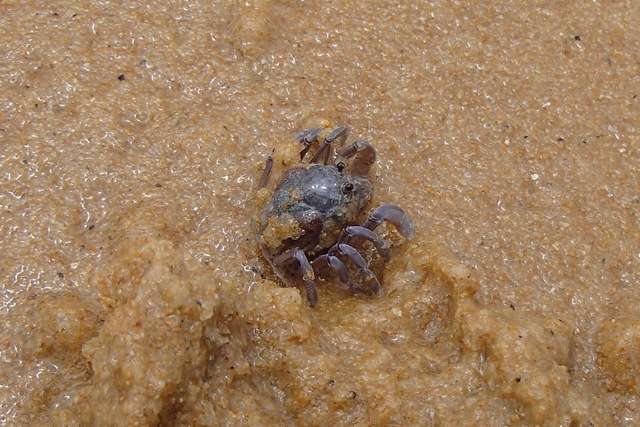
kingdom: Animalia
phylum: Arthropoda
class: Malacostraca
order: Decapoda
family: Mictyridae
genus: Mictyris
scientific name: Mictyris platycheles
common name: Dark blue soldier crab
